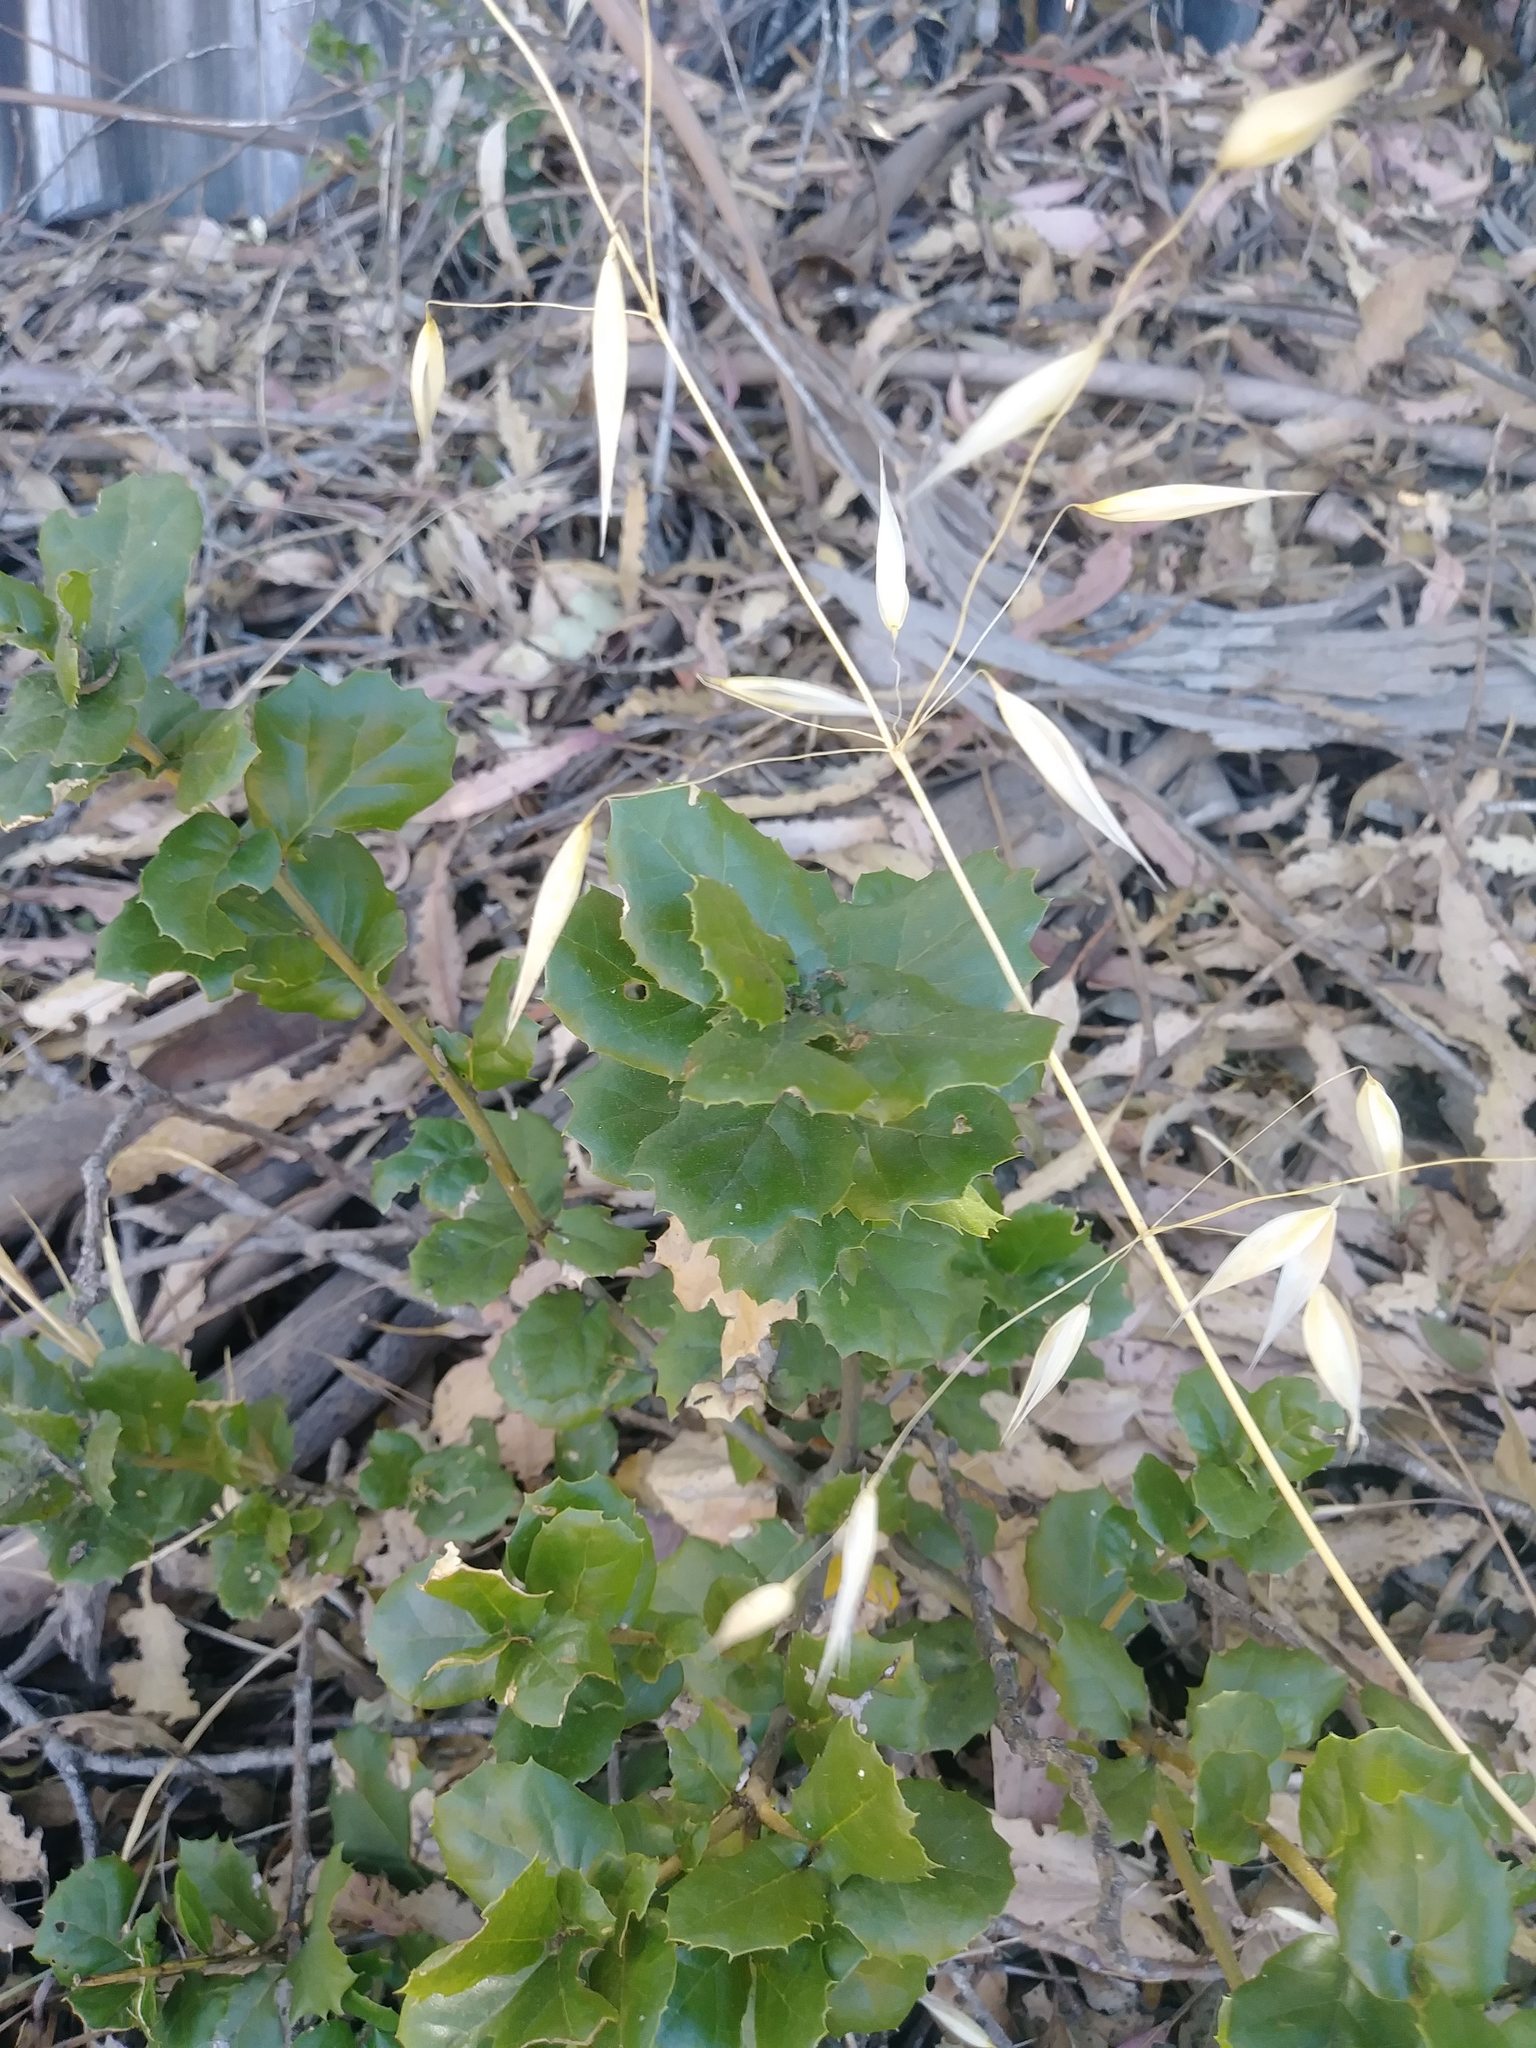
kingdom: Plantae
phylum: Tracheophyta
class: Magnoliopsida
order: Fagales
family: Fagaceae
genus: Quercus
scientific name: Quercus agrifolia
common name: California live oak
